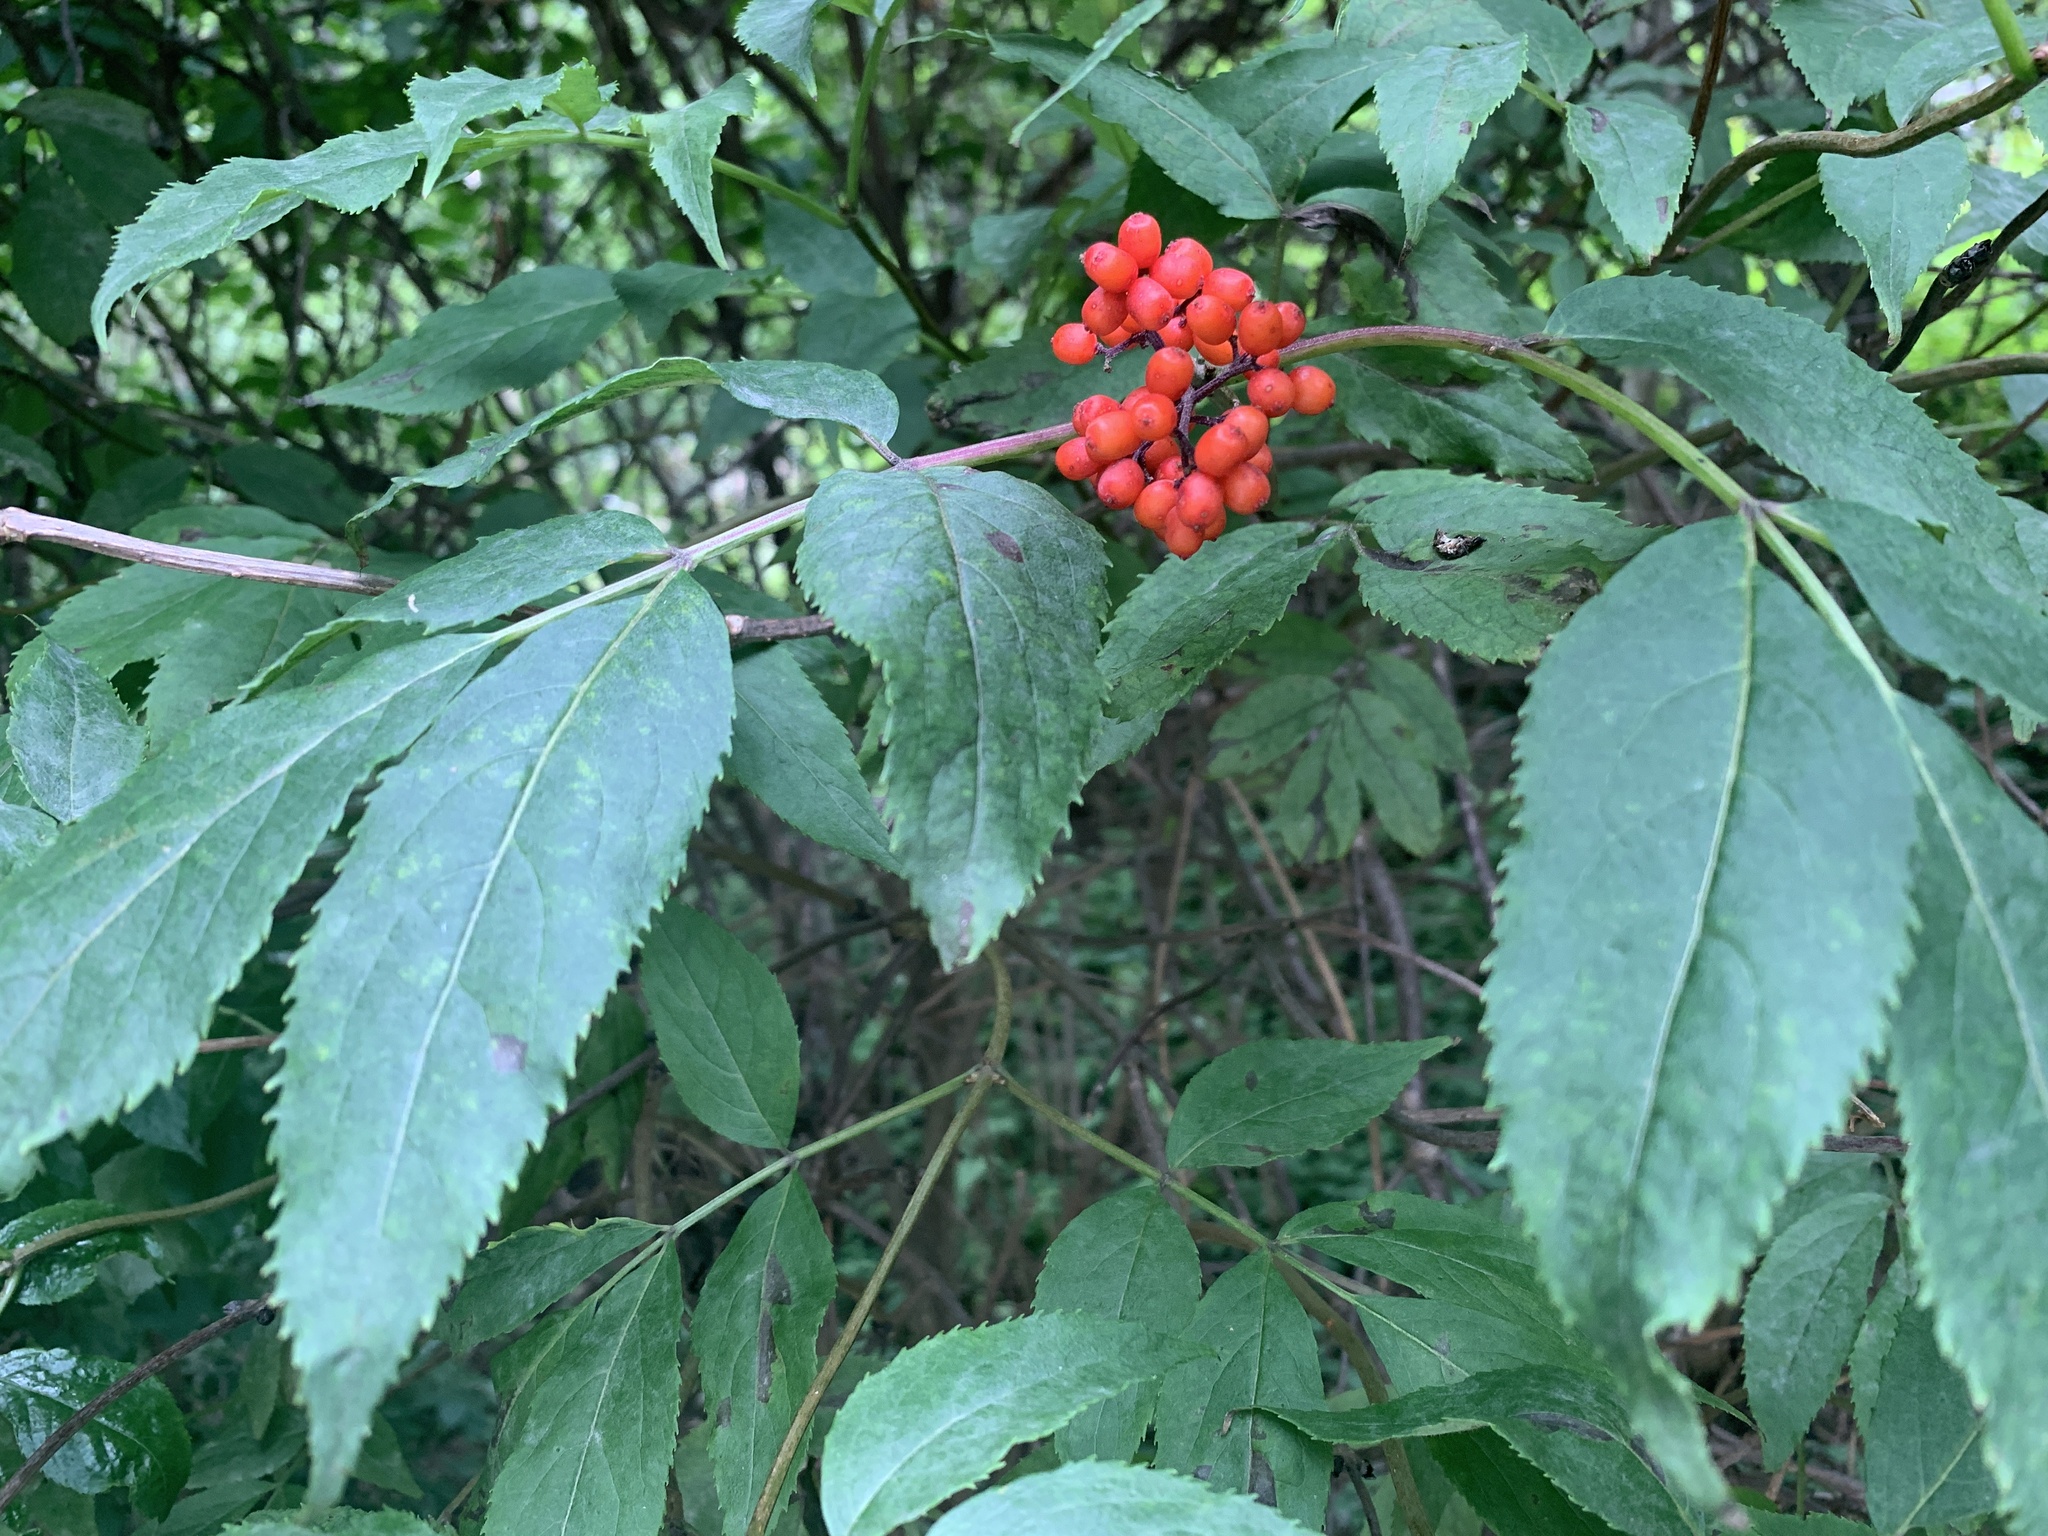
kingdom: Plantae
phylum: Tracheophyta
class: Magnoliopsida
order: Dipsacales
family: Viburnaceae
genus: Sambucus
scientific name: Sambucus racemosa
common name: Red-berried elder
